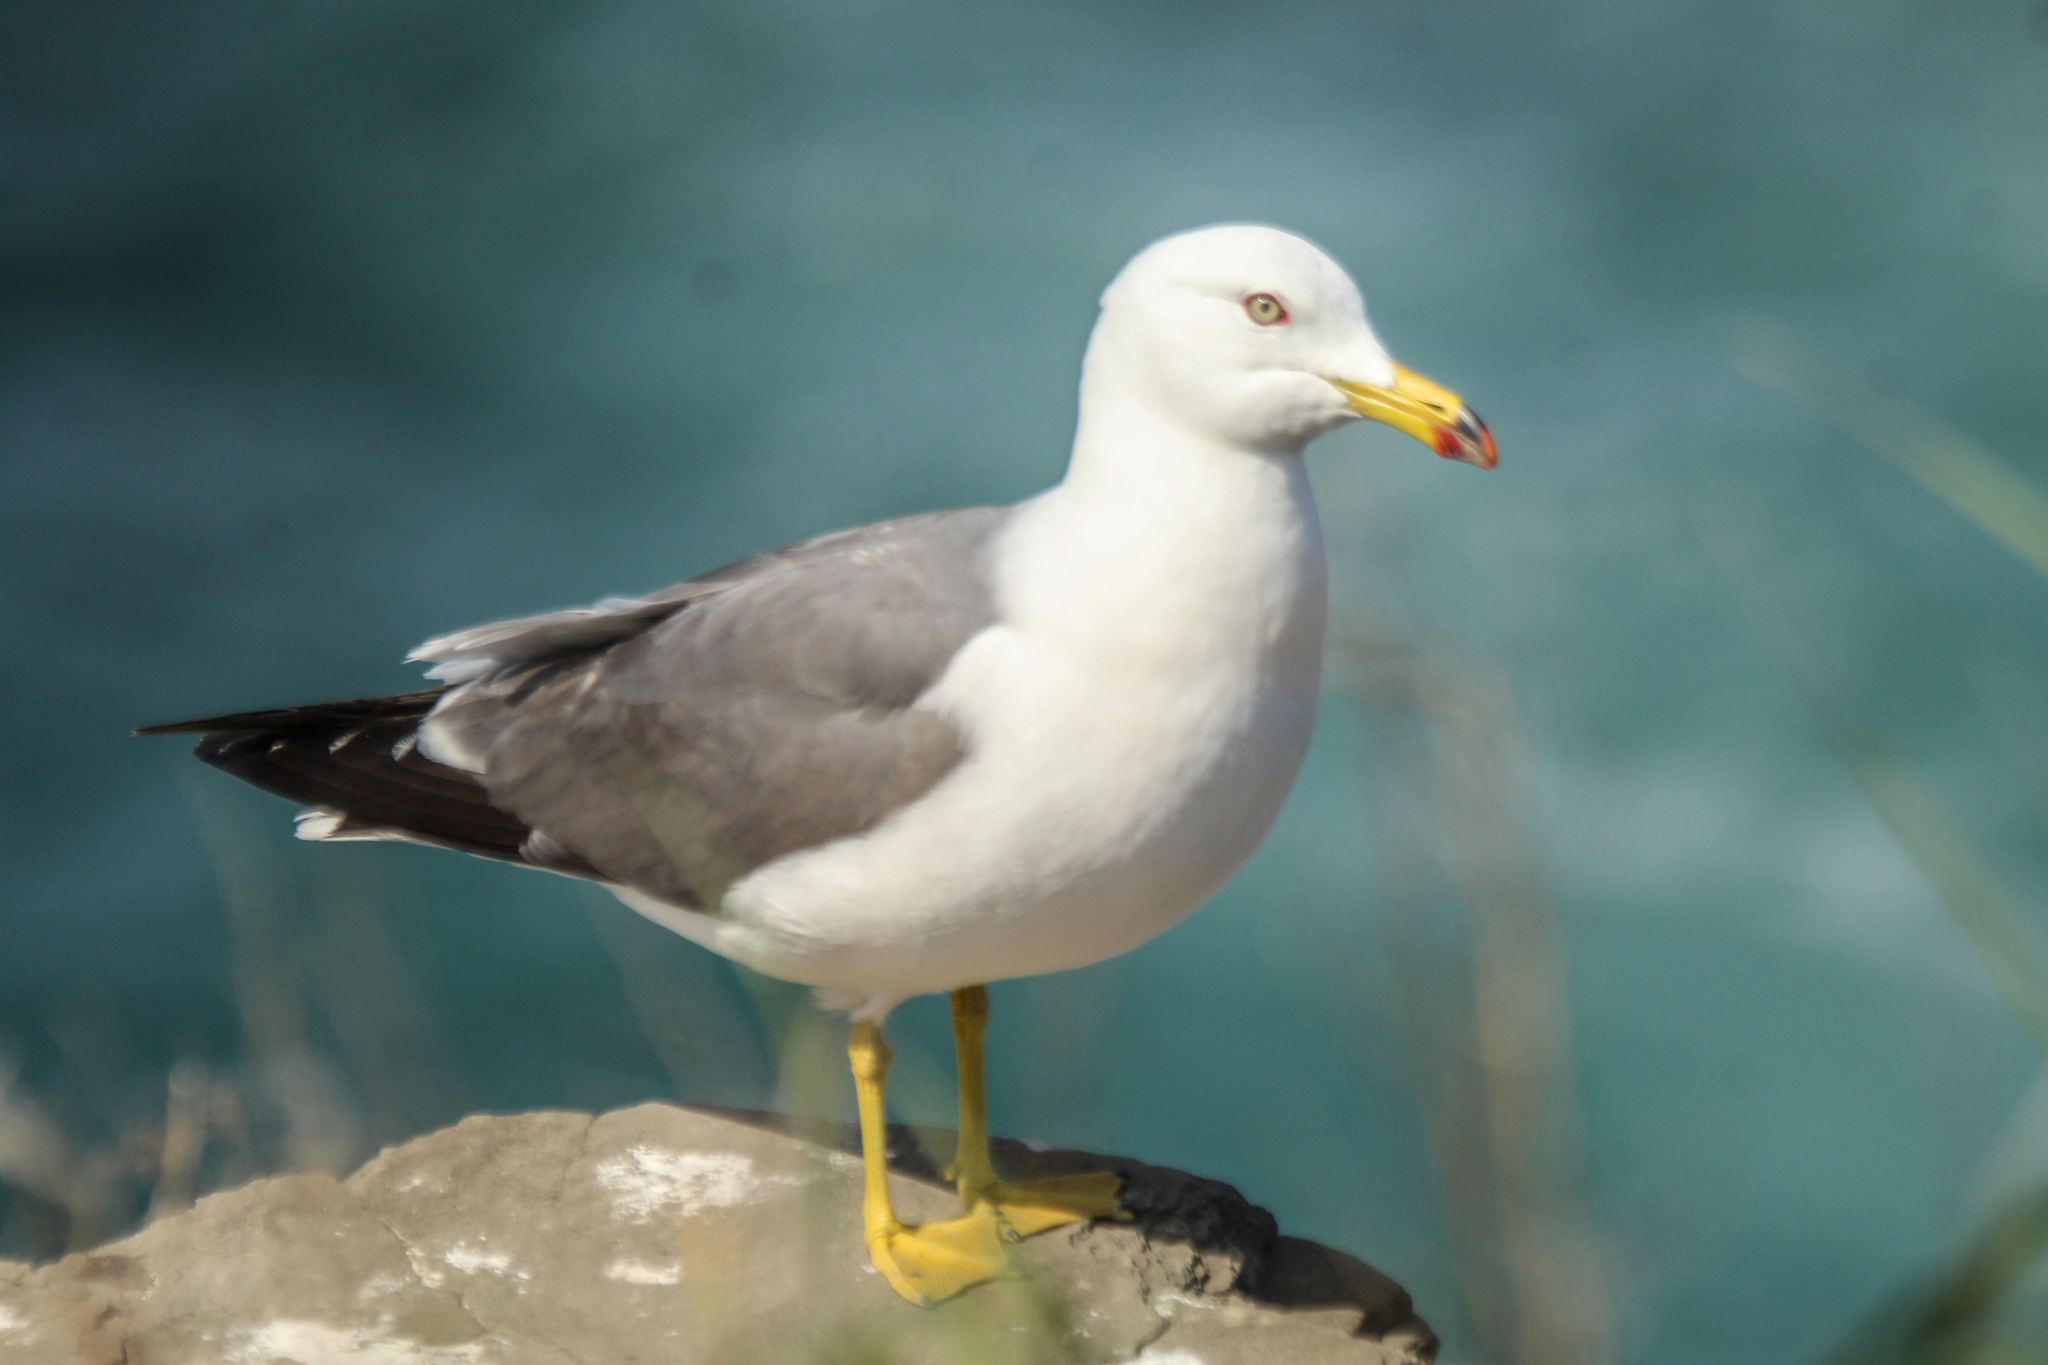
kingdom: Animalia
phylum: Chordata
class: Aves
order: Charadriiformes
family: Laridae
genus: Larus
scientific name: Larus crassirostris
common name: Black-tailed gull
